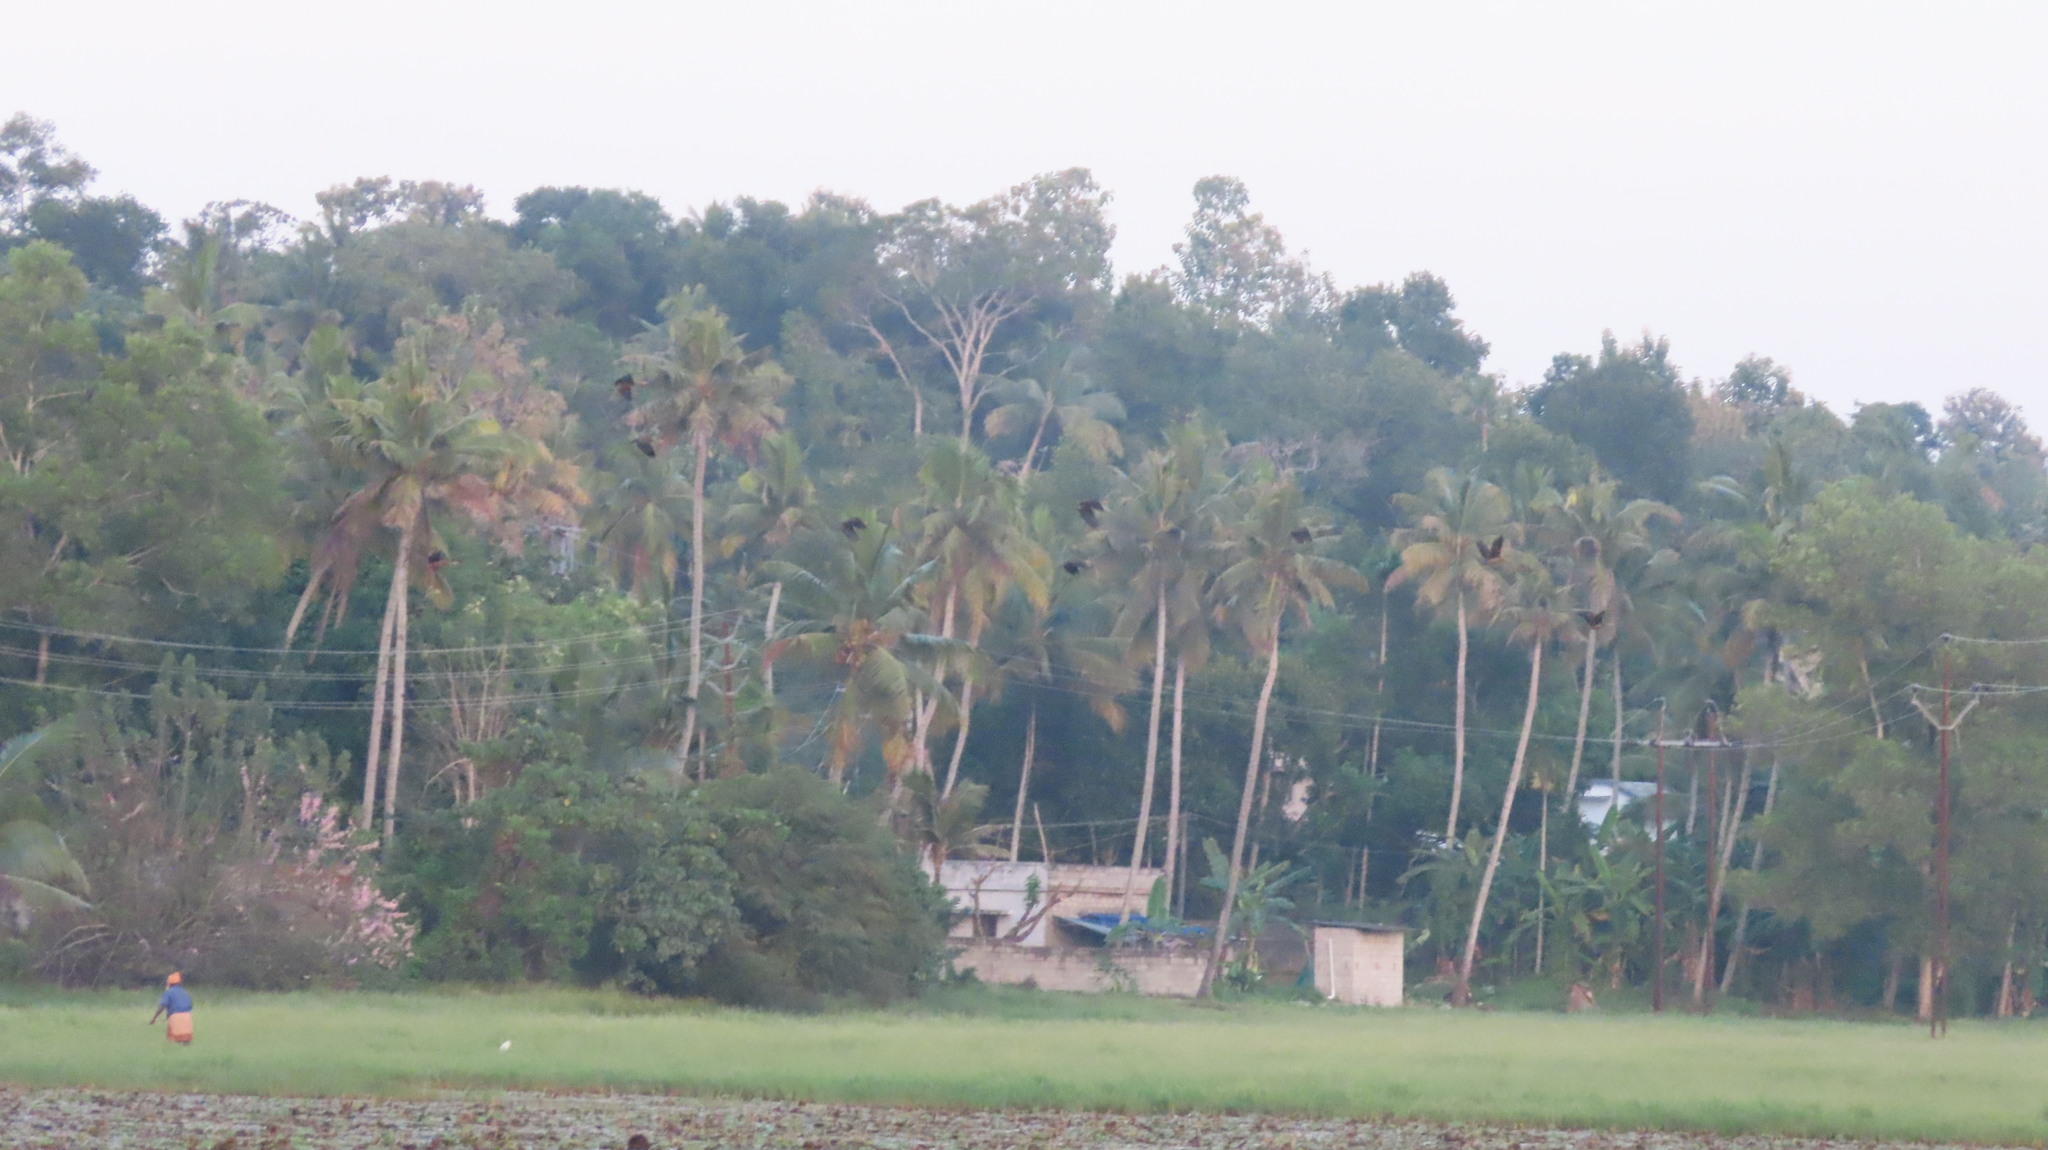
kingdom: Animalia
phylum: Chordata
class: Aves
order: Anseriformes
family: Anatidae
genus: Dendrocygna
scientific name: Dendrocygna javanica
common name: Lesser whistling-duck
